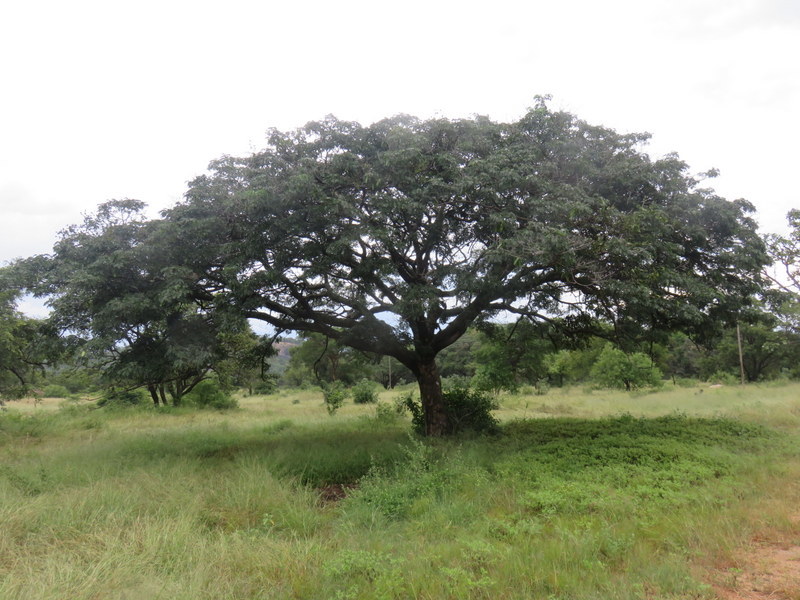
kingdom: Plantae
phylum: Tracheophyta
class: Magnoliopsida
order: Myrtales
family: Combretaceae
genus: Terminalia
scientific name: Terminalia brachystemma
